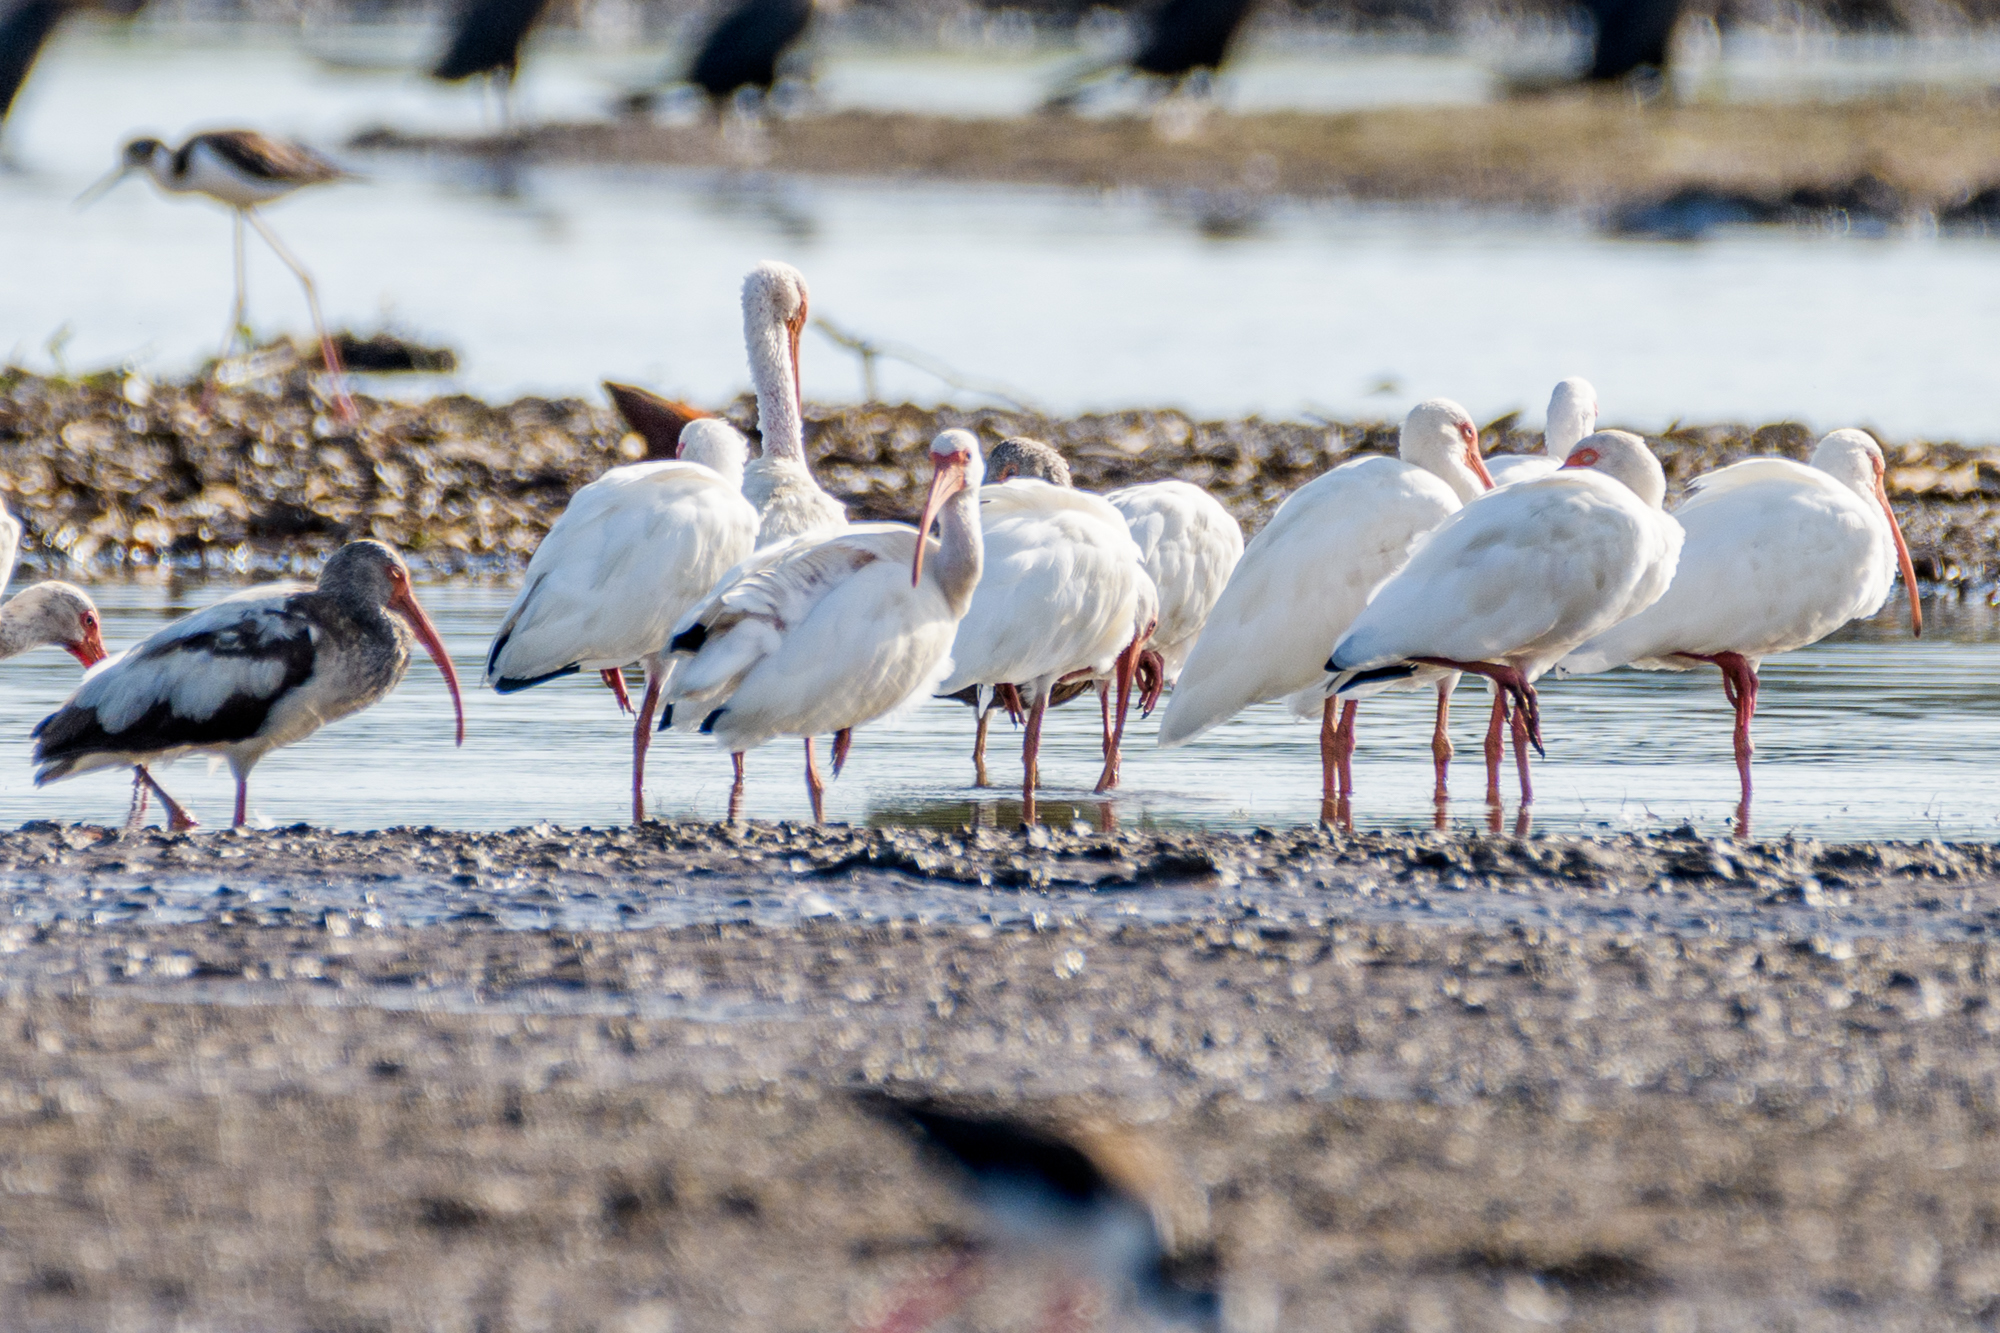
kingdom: Animalia
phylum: Chordata
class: Aves
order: Pelecaniformes
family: Threskiornithidae
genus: Eudocimus
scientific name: Eudocimus albus
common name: White ibis
